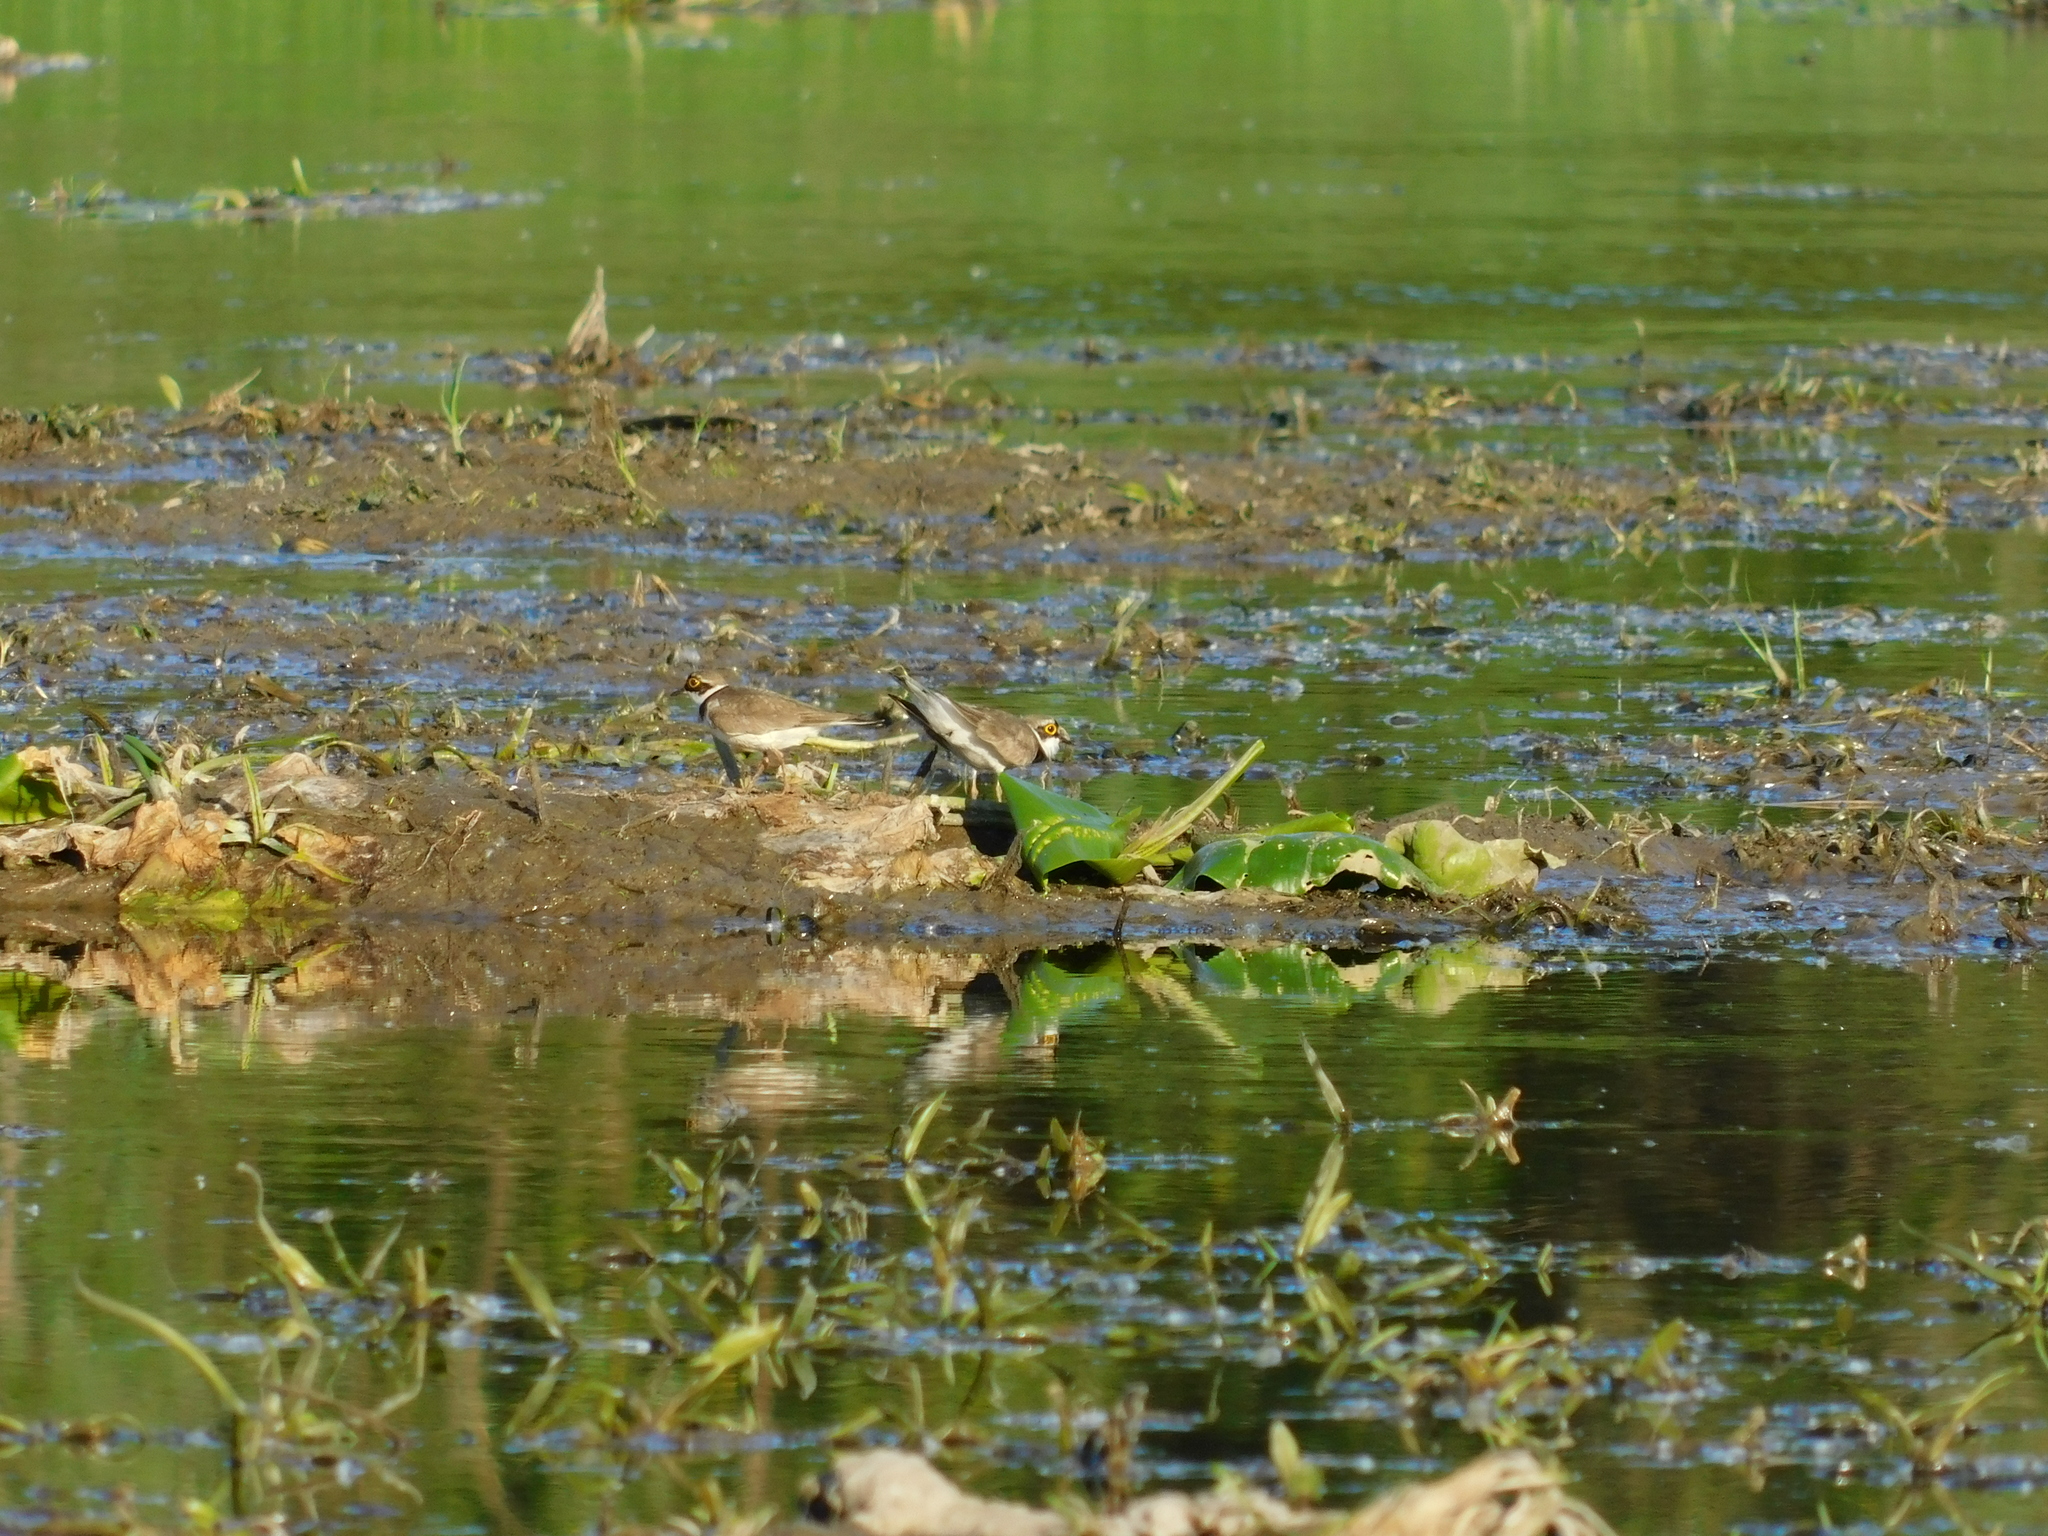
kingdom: Animalia
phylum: Chordata
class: Aves
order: Charadriiformes
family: Charadriidae
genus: Charadrius
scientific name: Charadrius dubius
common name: Little ringed plover
